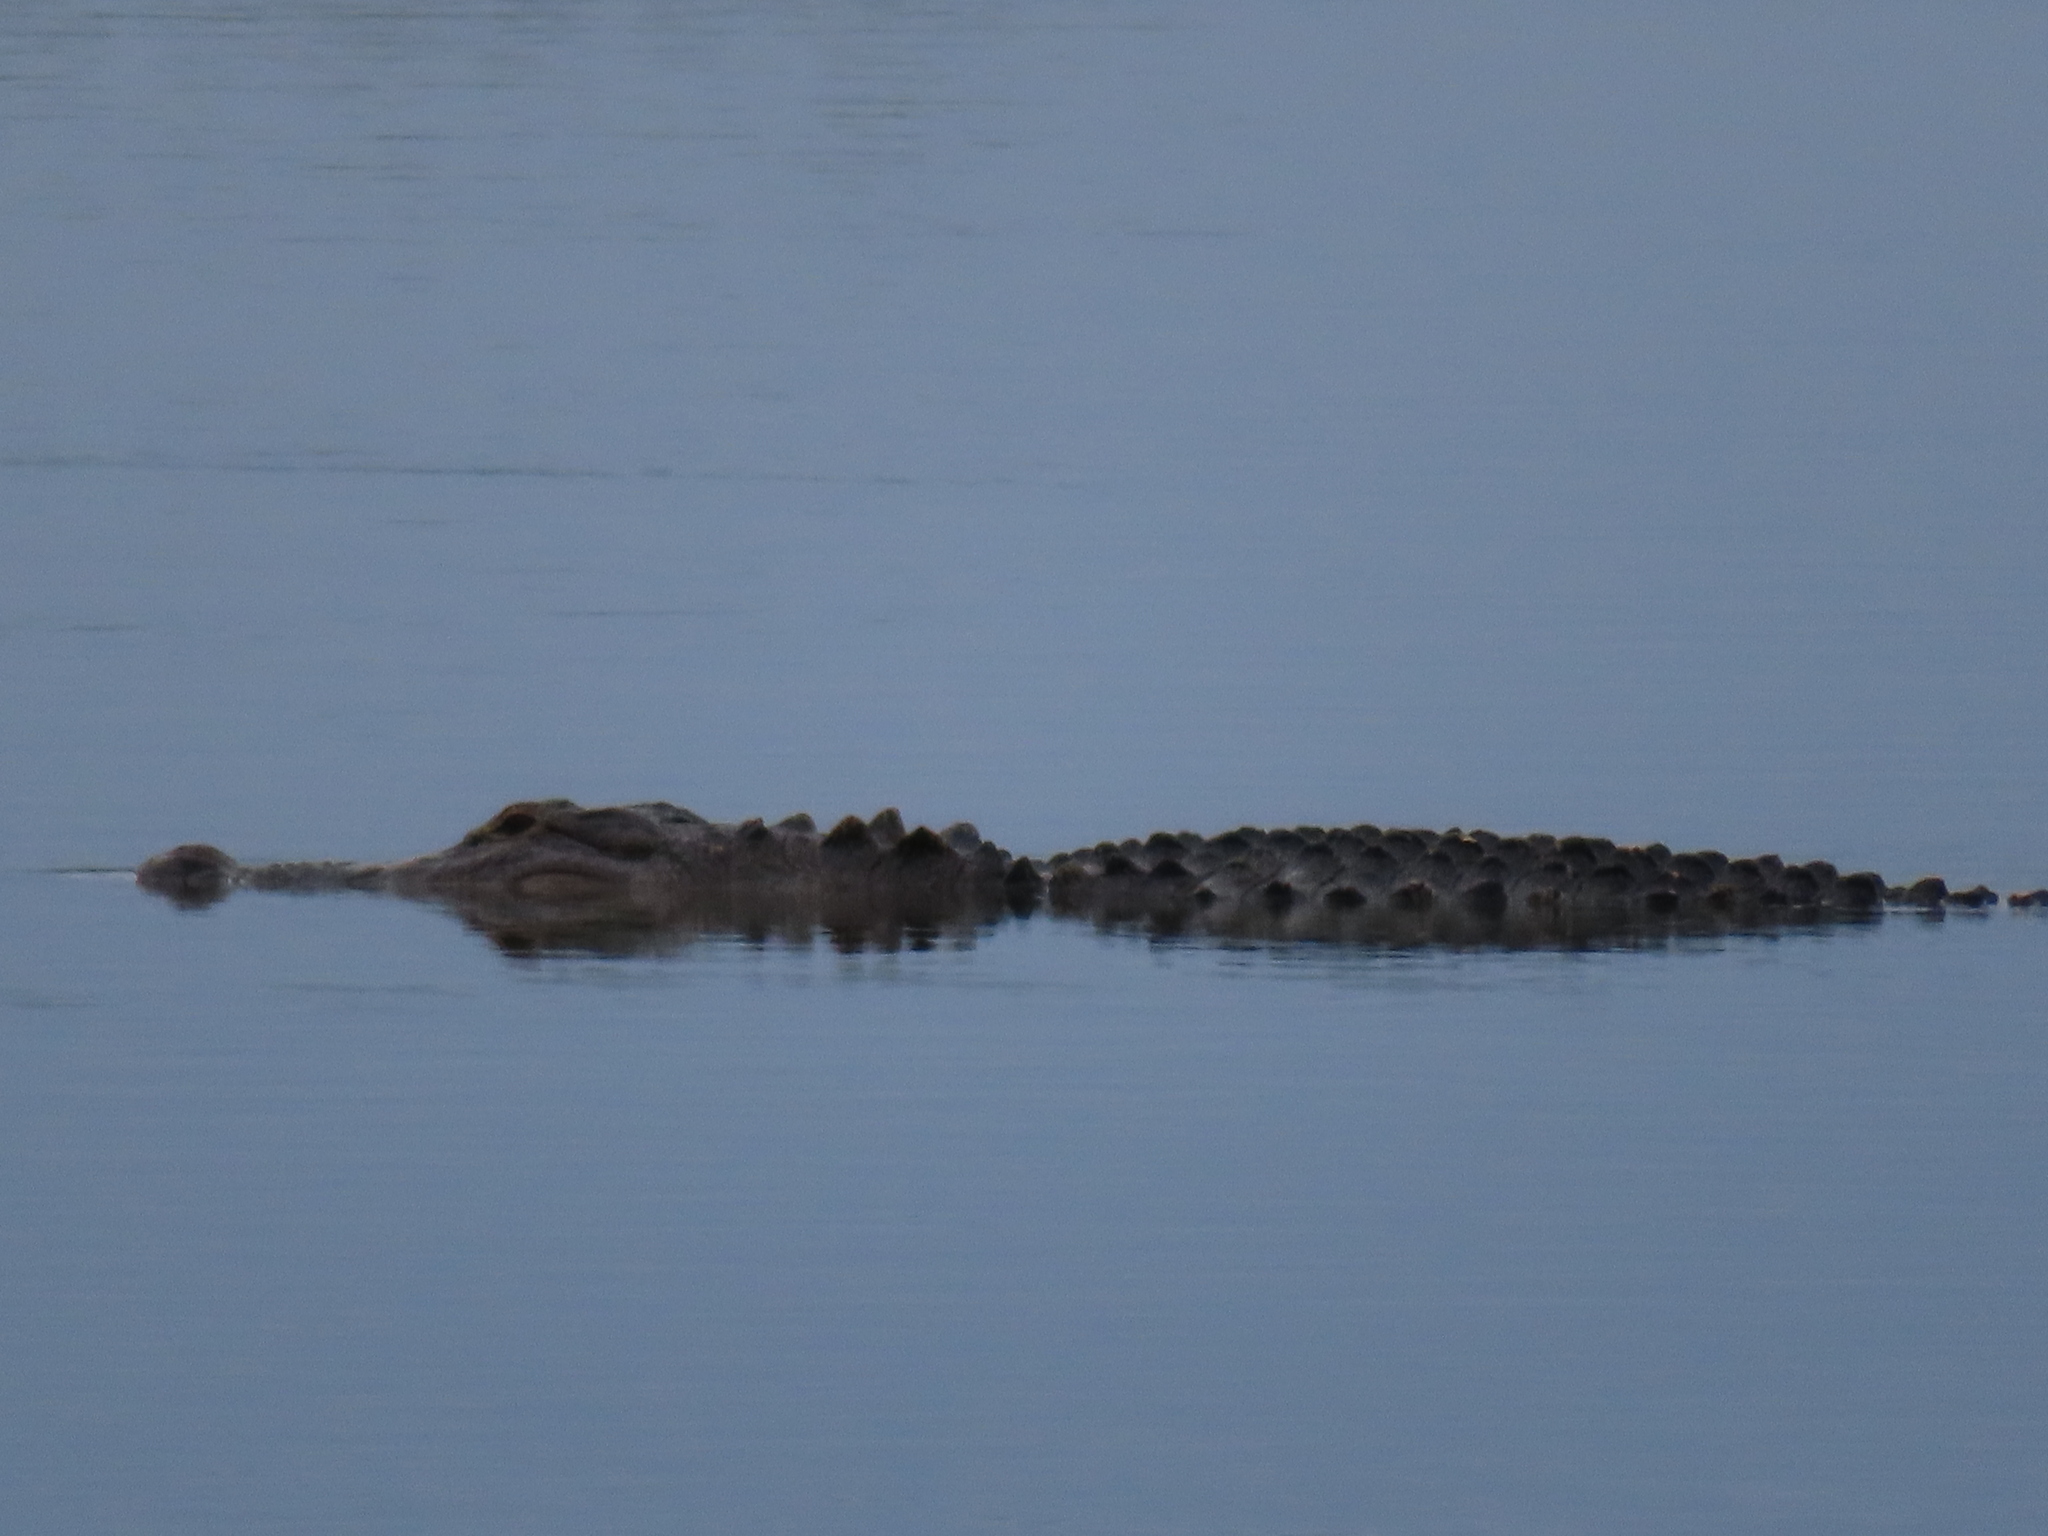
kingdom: Animalia
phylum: Chordata
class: Crocodylia
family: Alligatoridae
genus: Alligator
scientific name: Alligator mississippiensis
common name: American alligator
